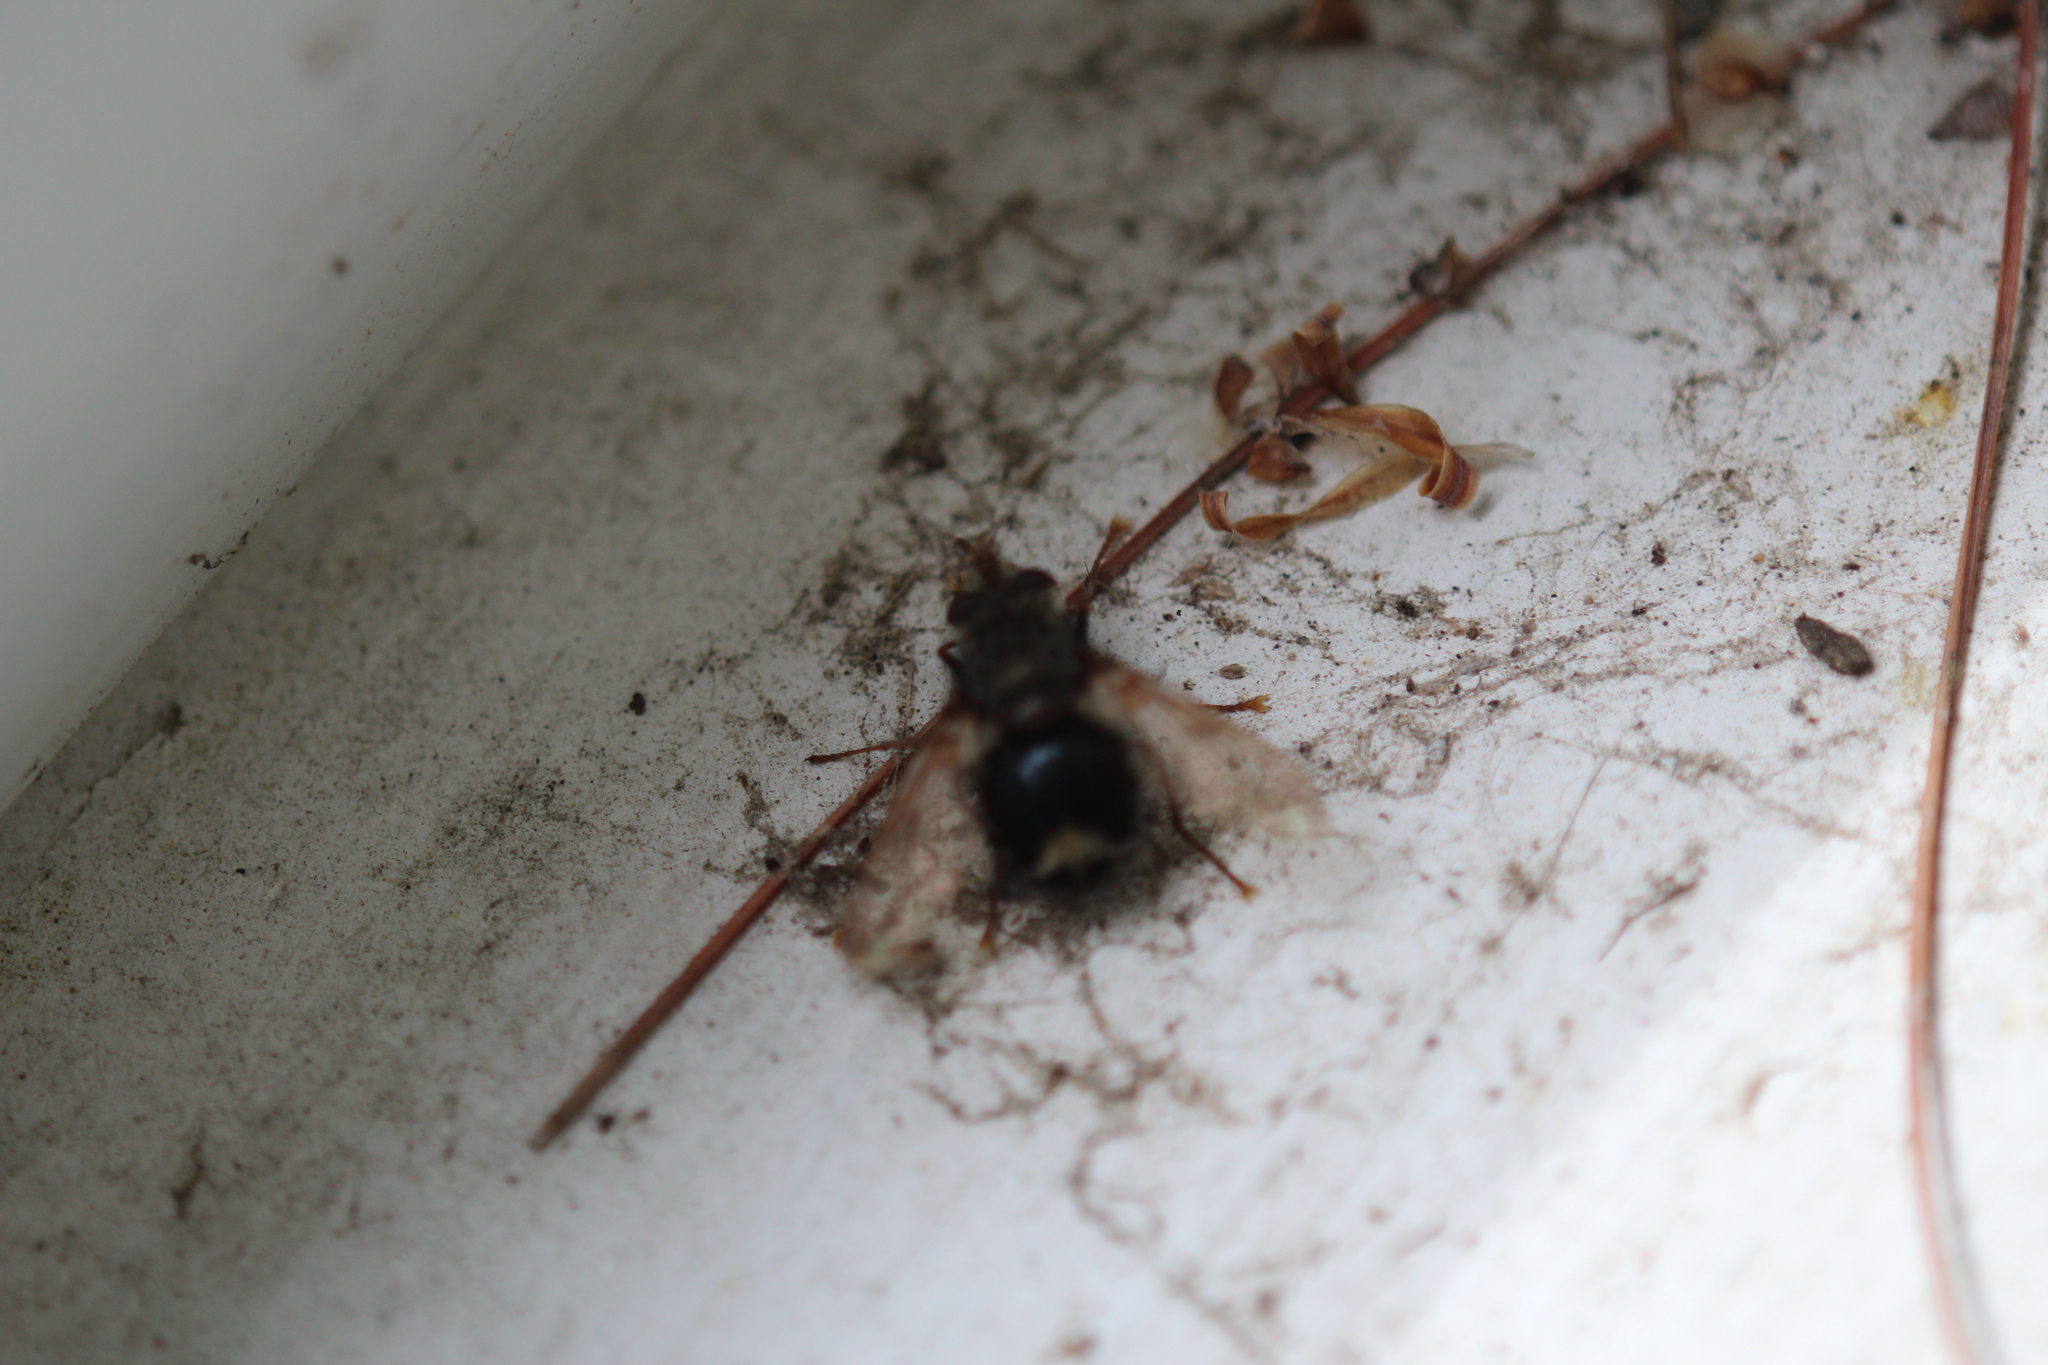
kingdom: Animalia
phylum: Arthropoda
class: Insecta
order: Diptera
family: Tachinidae
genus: Epalpus
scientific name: Epalpus signifer
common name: Early tachinid fly
